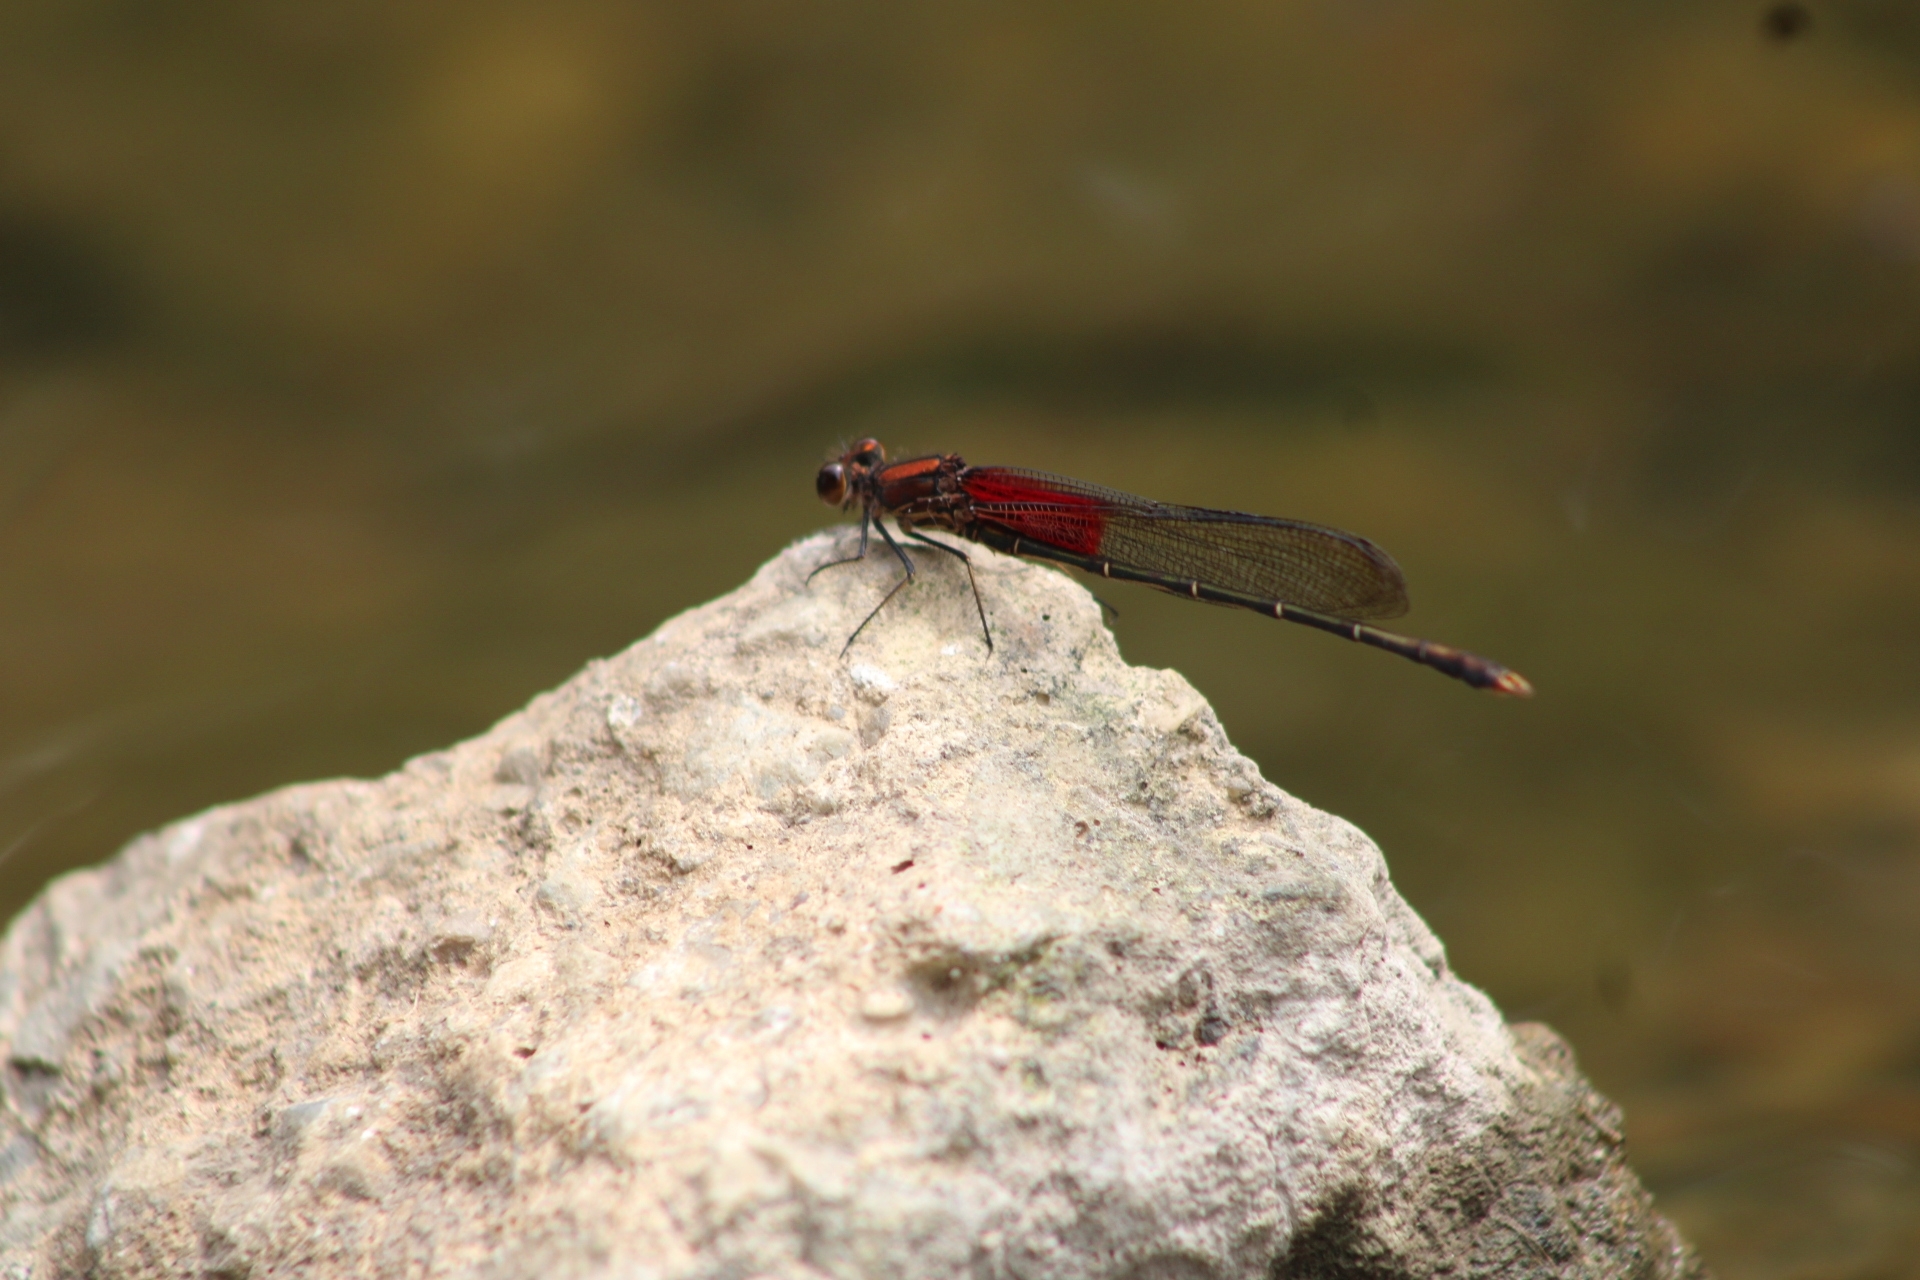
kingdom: Animalia
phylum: Arthropoda
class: Insecta
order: Odonata
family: Calopterygidae
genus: Hetaerina
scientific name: Hetaerina americana
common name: American rubyspot
